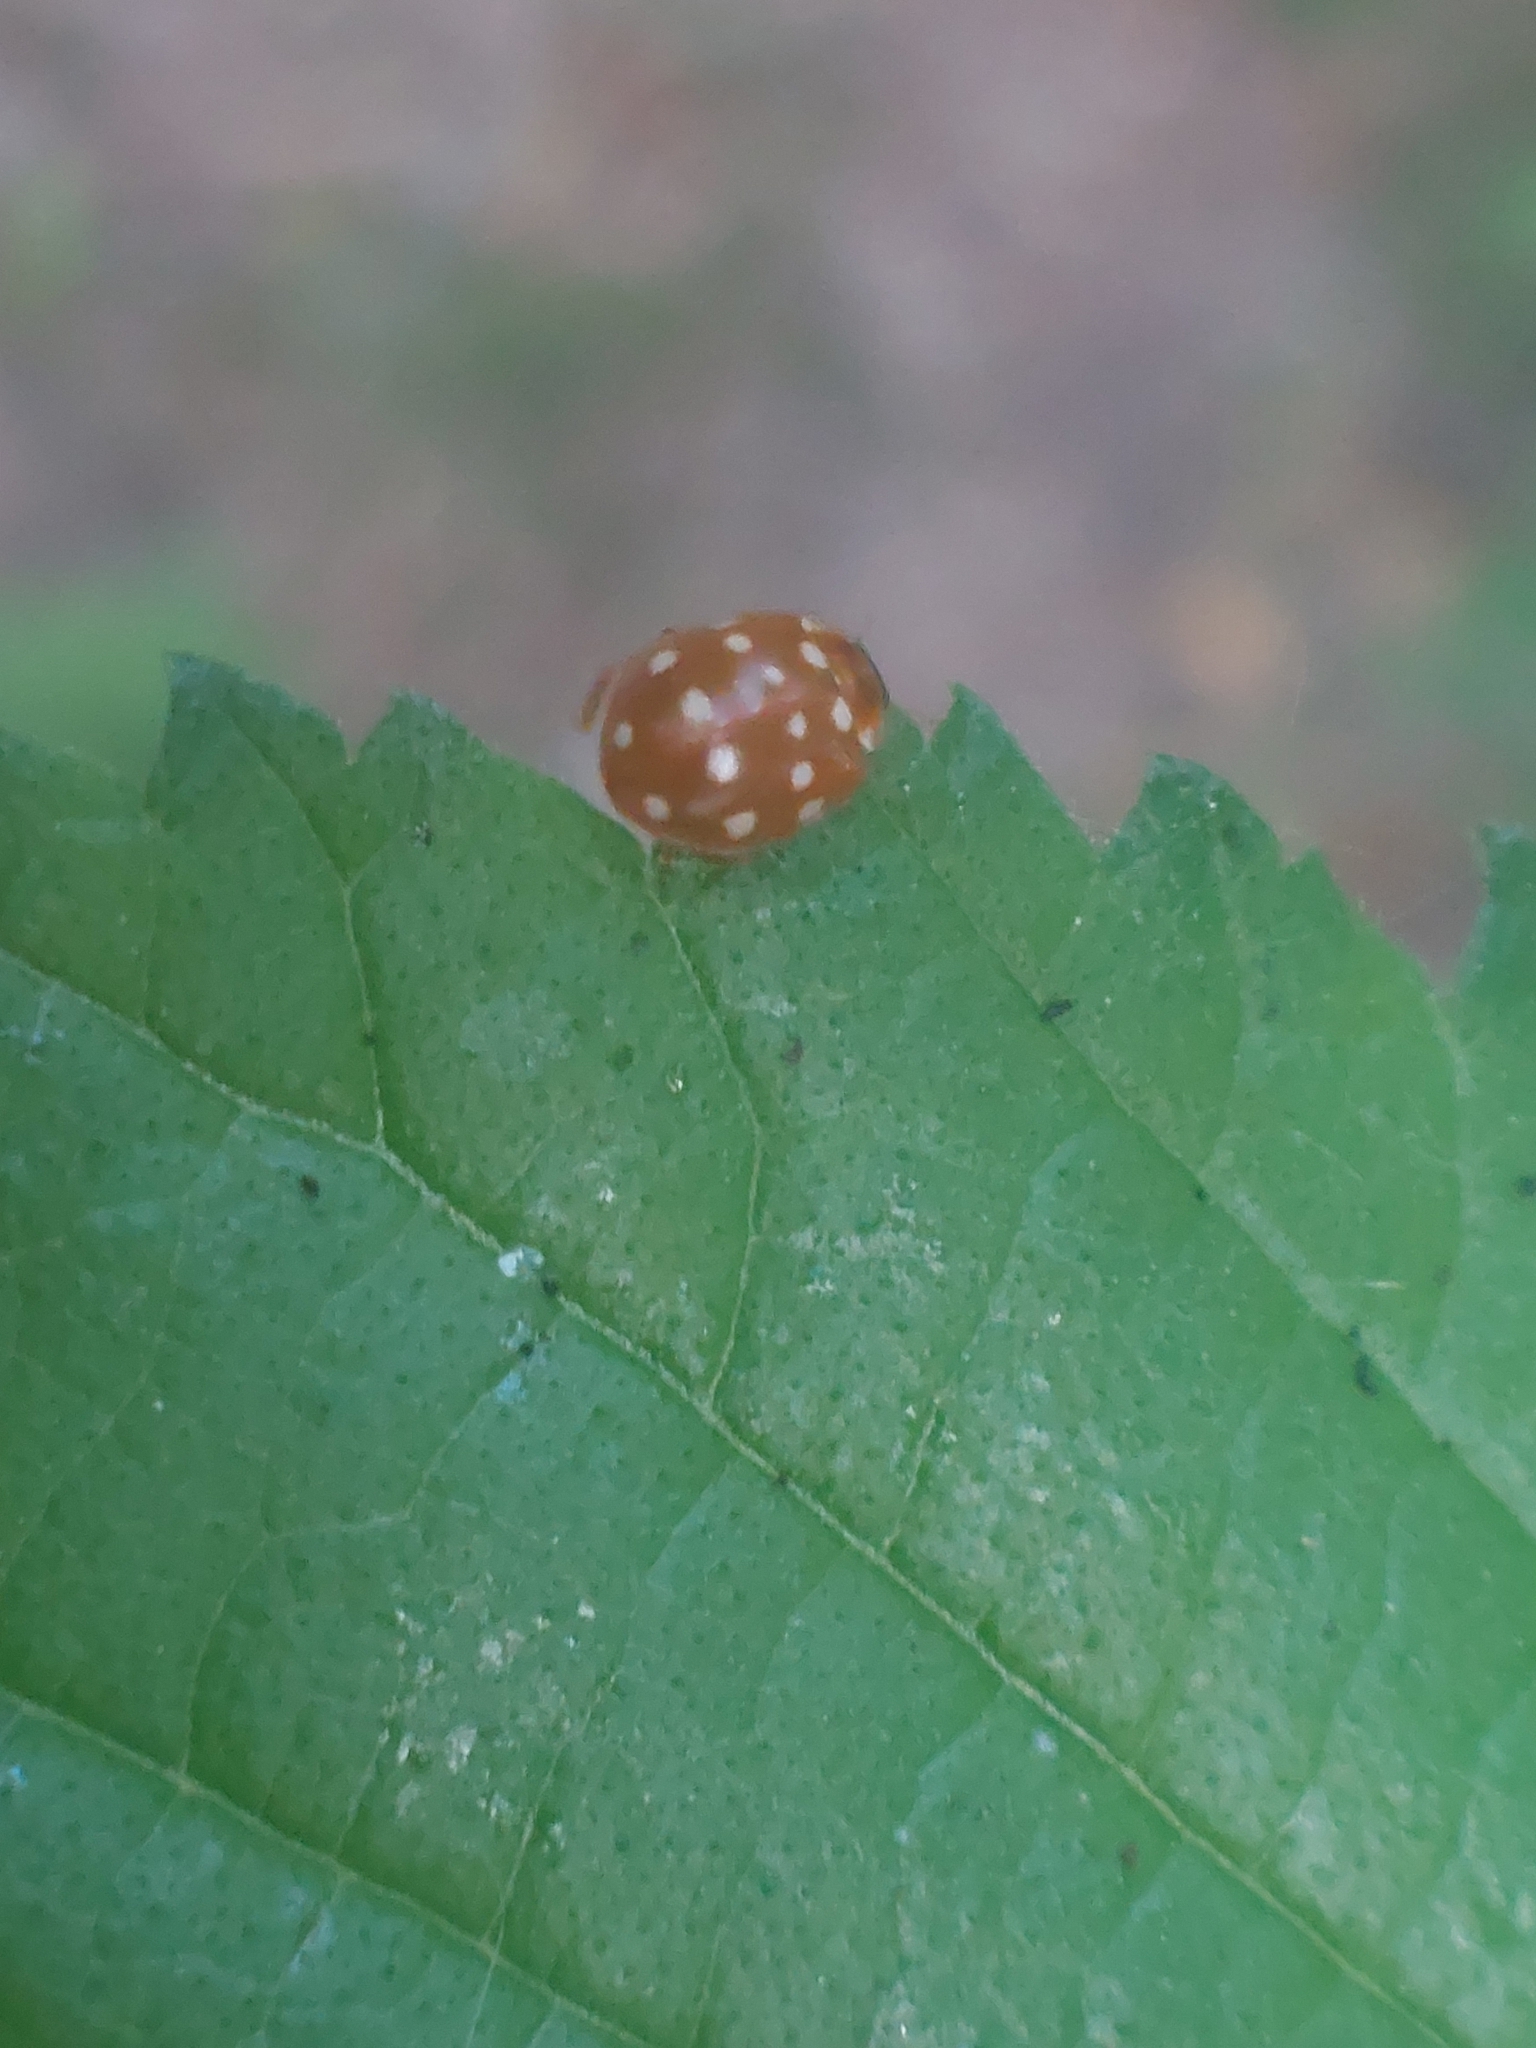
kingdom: Animalia
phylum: Arthropoda
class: Insecta
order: Coleoptera
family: Coccinellidae
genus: Calvia
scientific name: Calvia quatuordecimguttata
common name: Cream-spot ladybird
